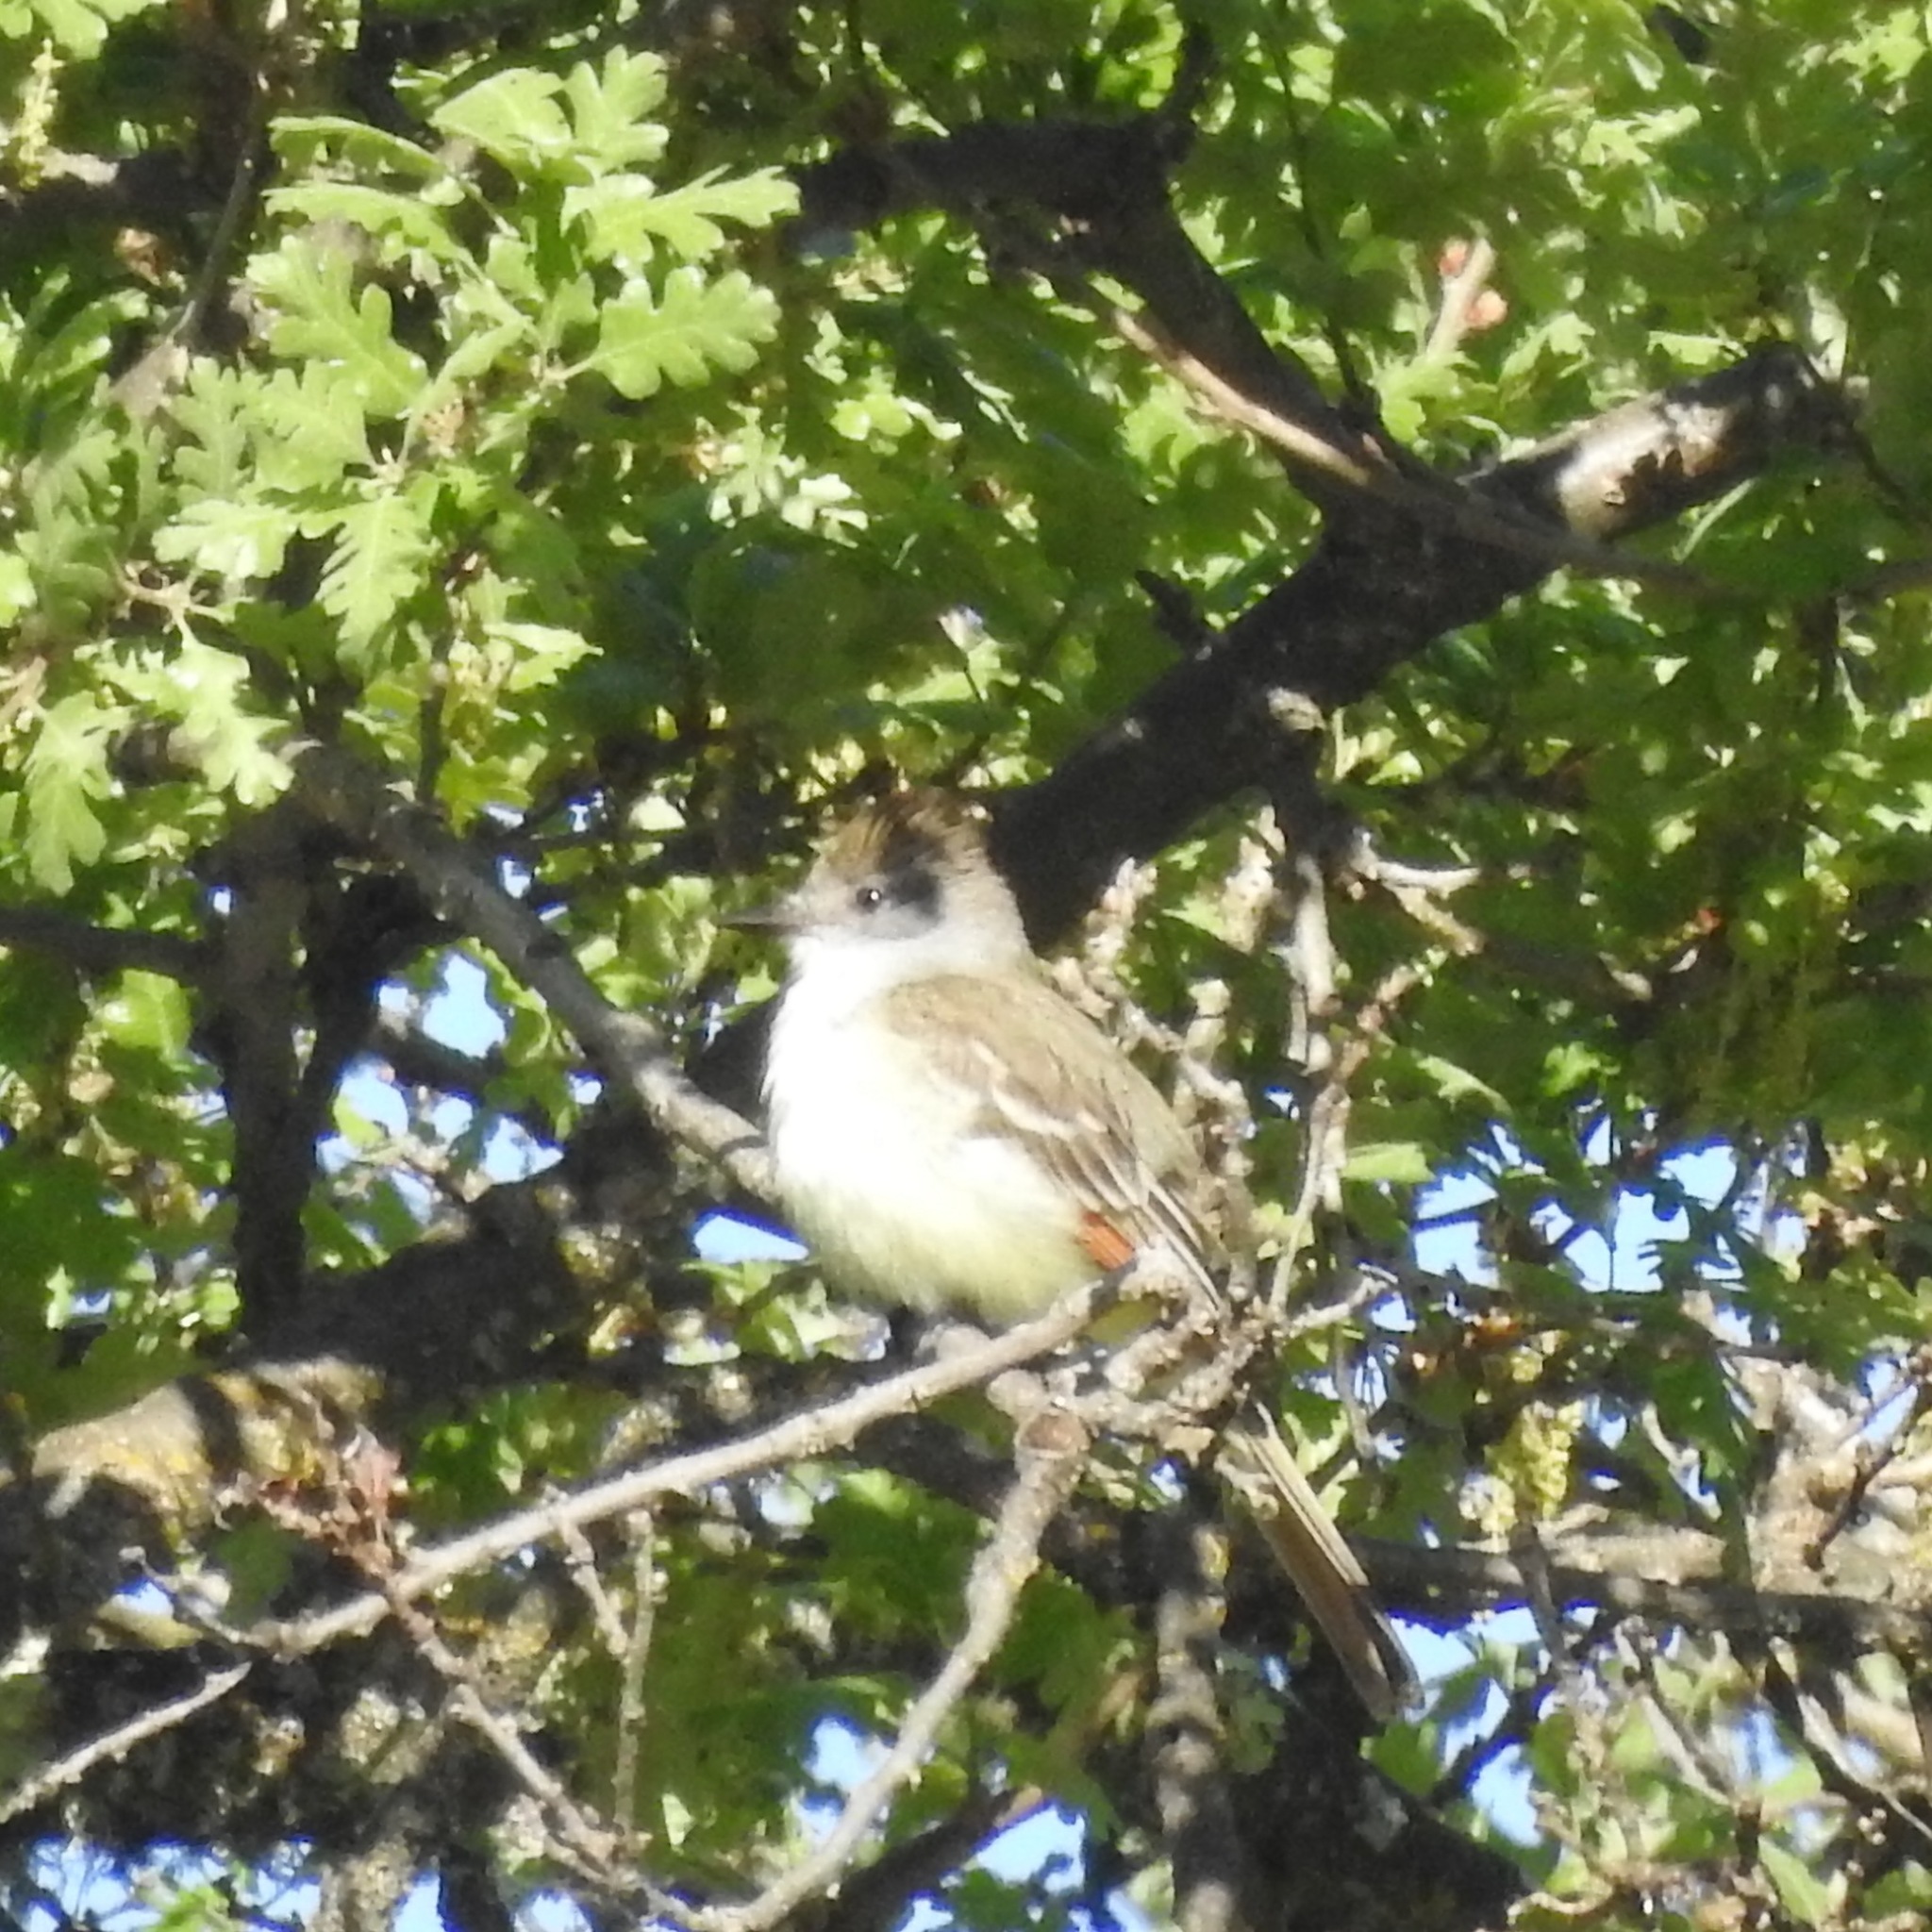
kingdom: Animalia
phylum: Chordata
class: Aves
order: Passeriformes
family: Tyrannidae
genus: Myiarchus
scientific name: Myiarchus cinerascens
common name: Ash-throated flycatcher
